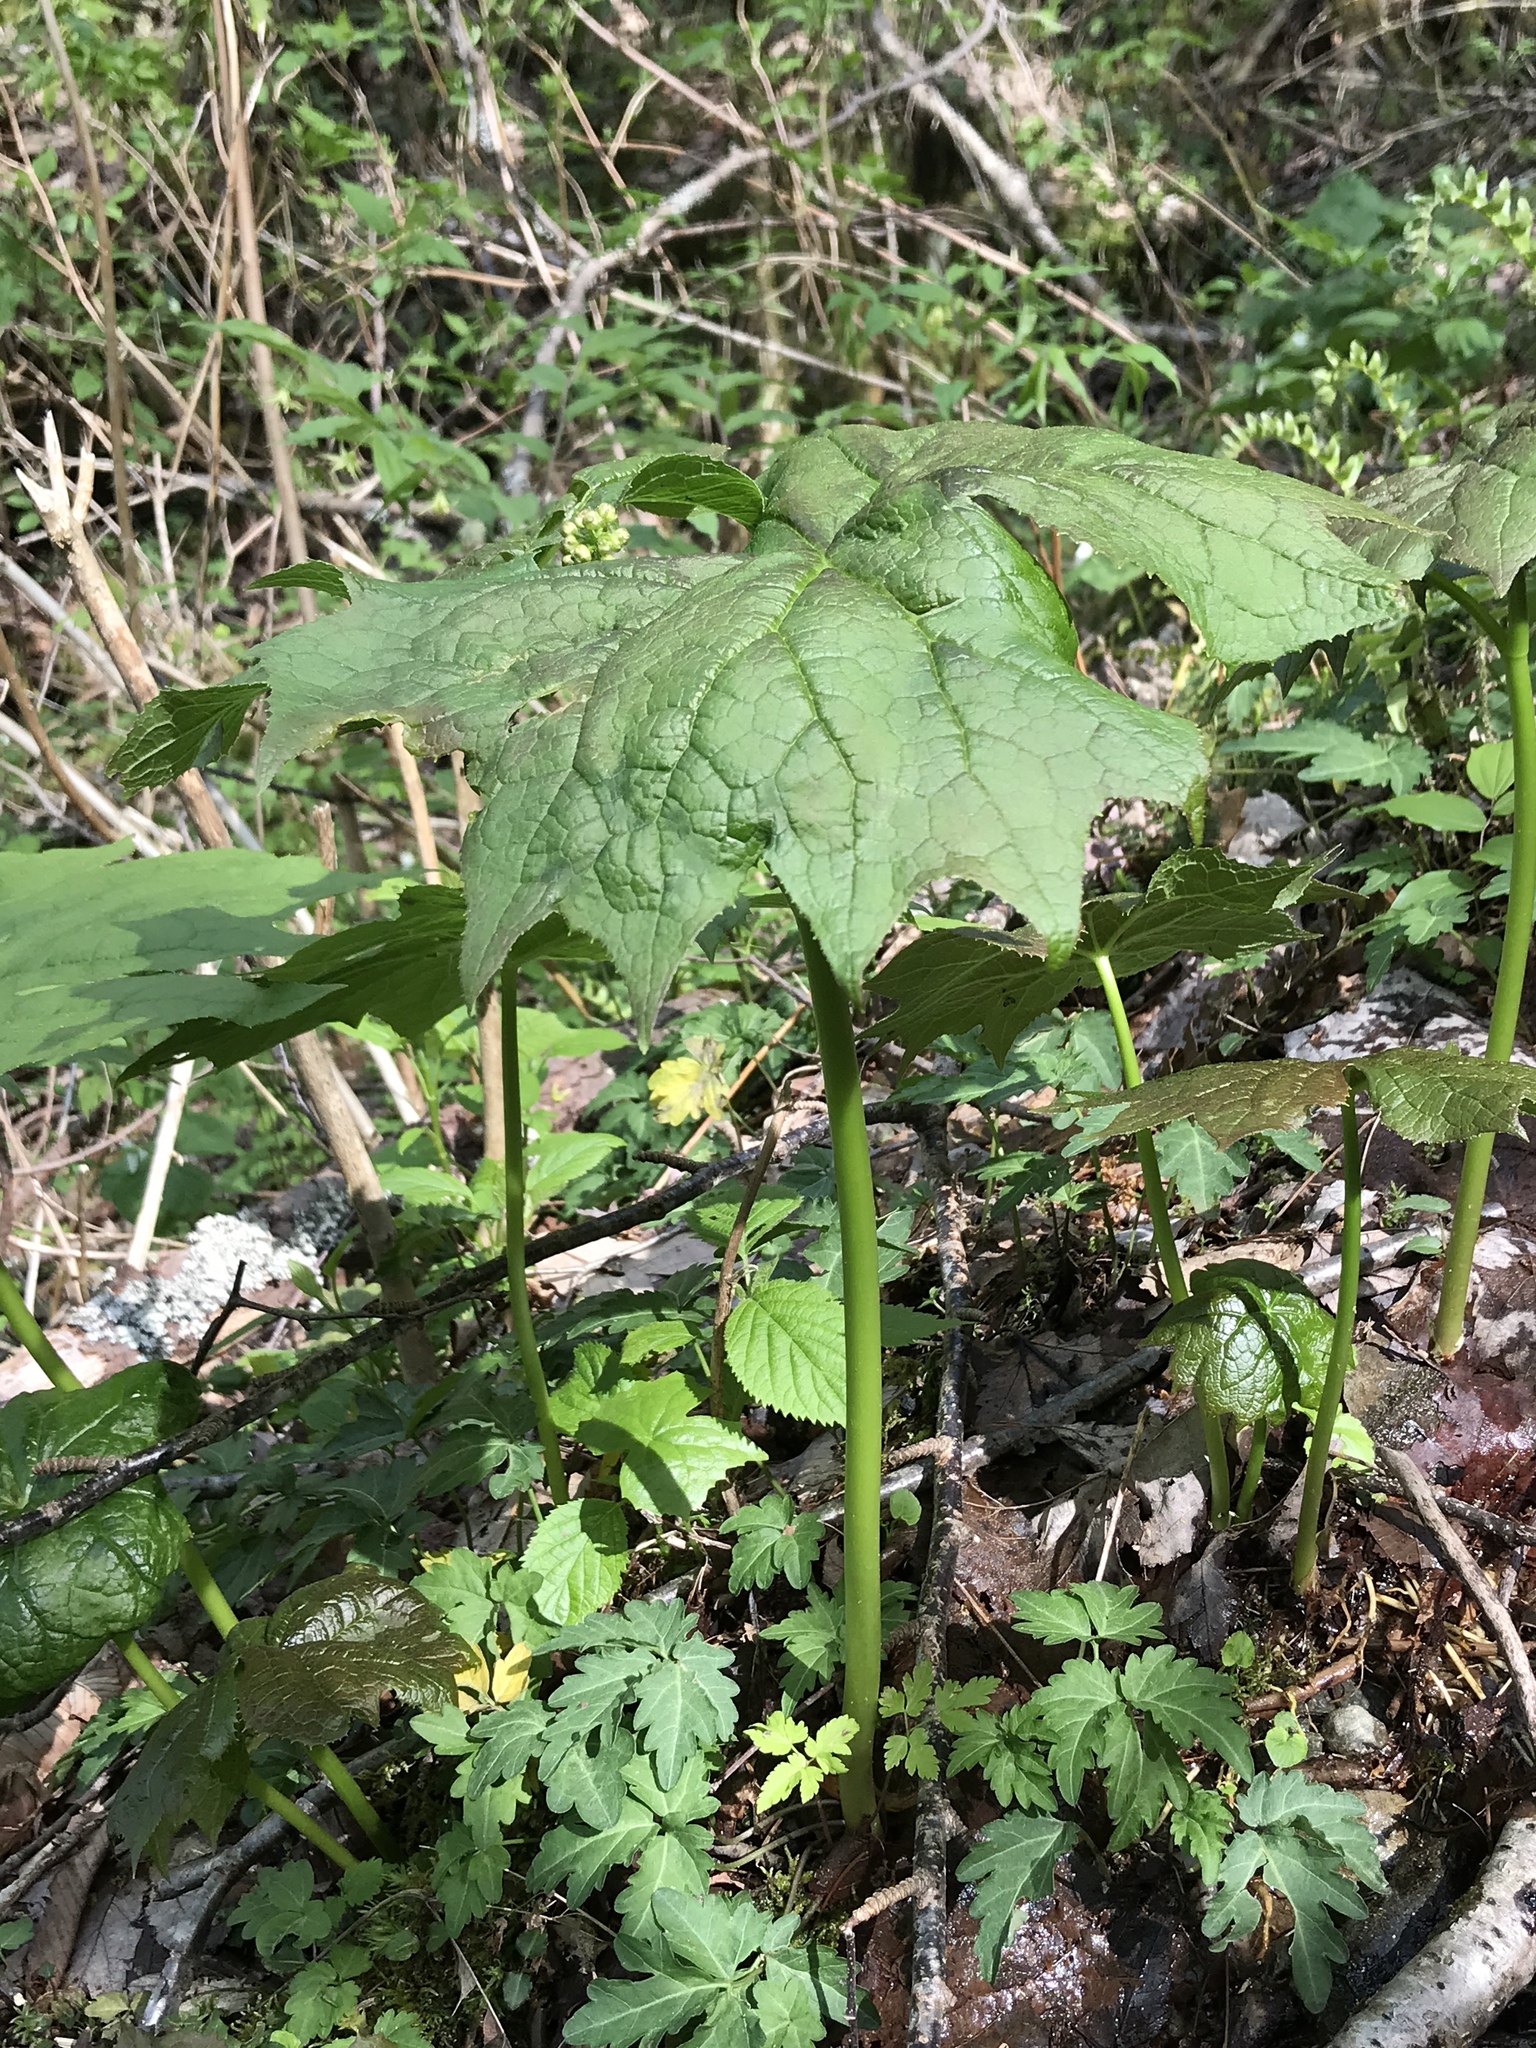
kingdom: Plantae
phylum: Tracheophyta
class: Magnoliopsida
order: Ranunculales
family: Berberidaceae
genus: Diphylleia
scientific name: Diphylleia cymosa
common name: Umbrella-leaf
